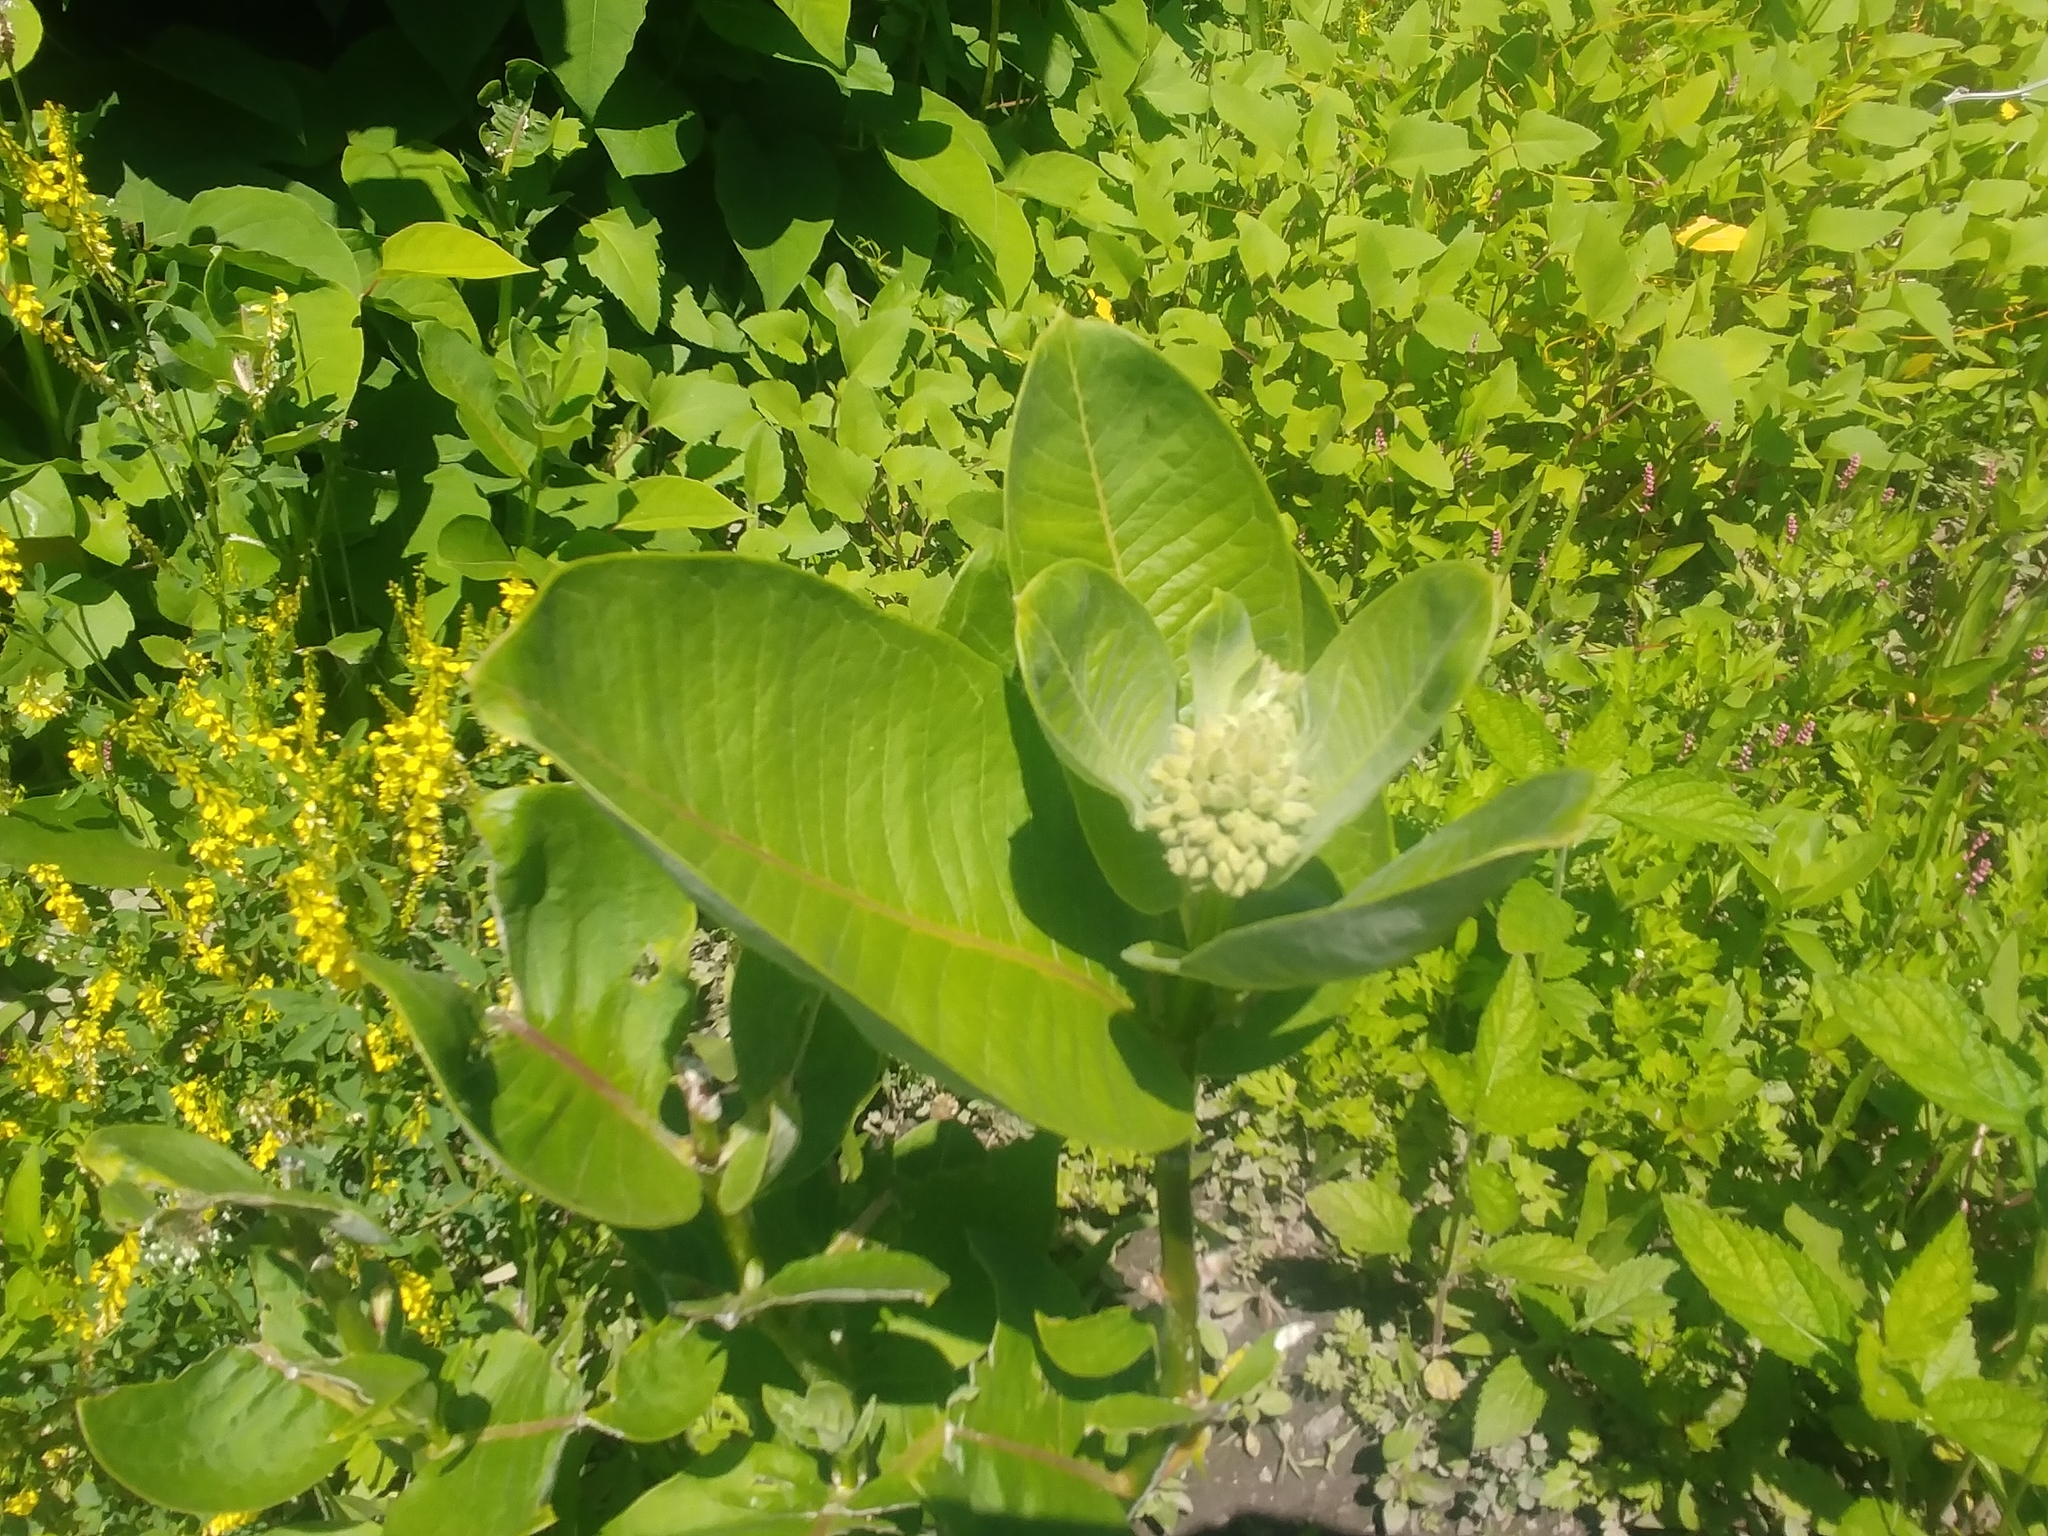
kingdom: Plantae
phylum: Tracheophyta
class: Magnoliopsida
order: Gentianales
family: Apocynaceae
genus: Asclepias
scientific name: Asclepias syriaca
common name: Common milkweed
